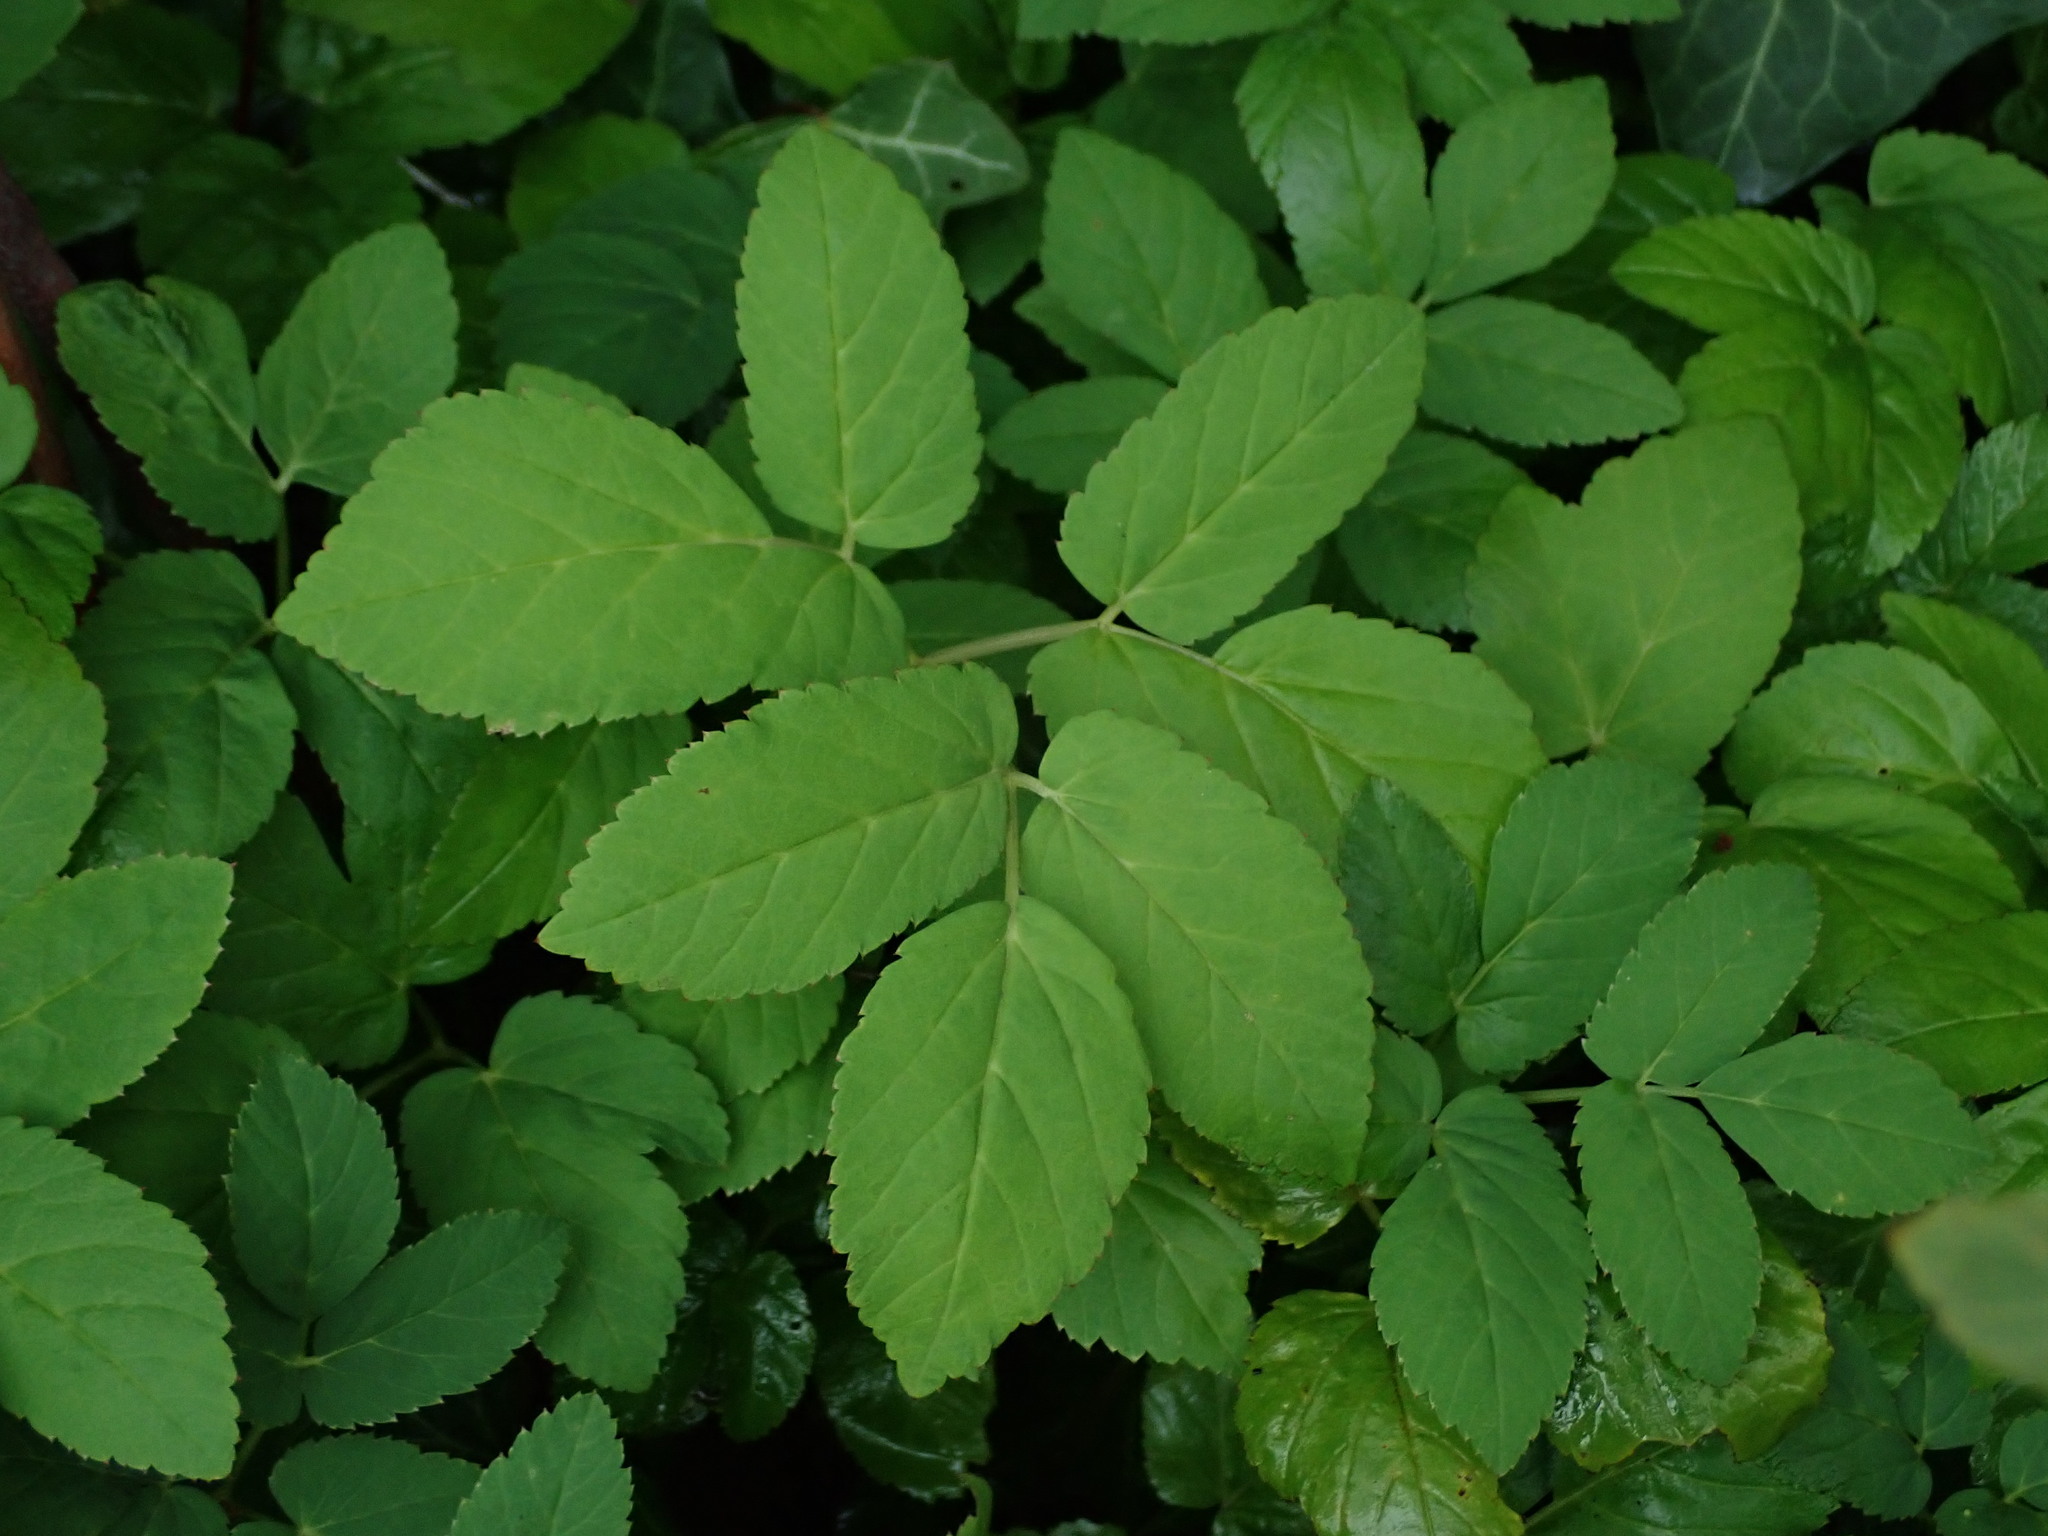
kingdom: Plantae
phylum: Tracheophyta
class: Magnoliopsida
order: Apiales
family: Apiaceae
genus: Aegopodium
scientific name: Aegopodium podagraria
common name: Ground-elder
